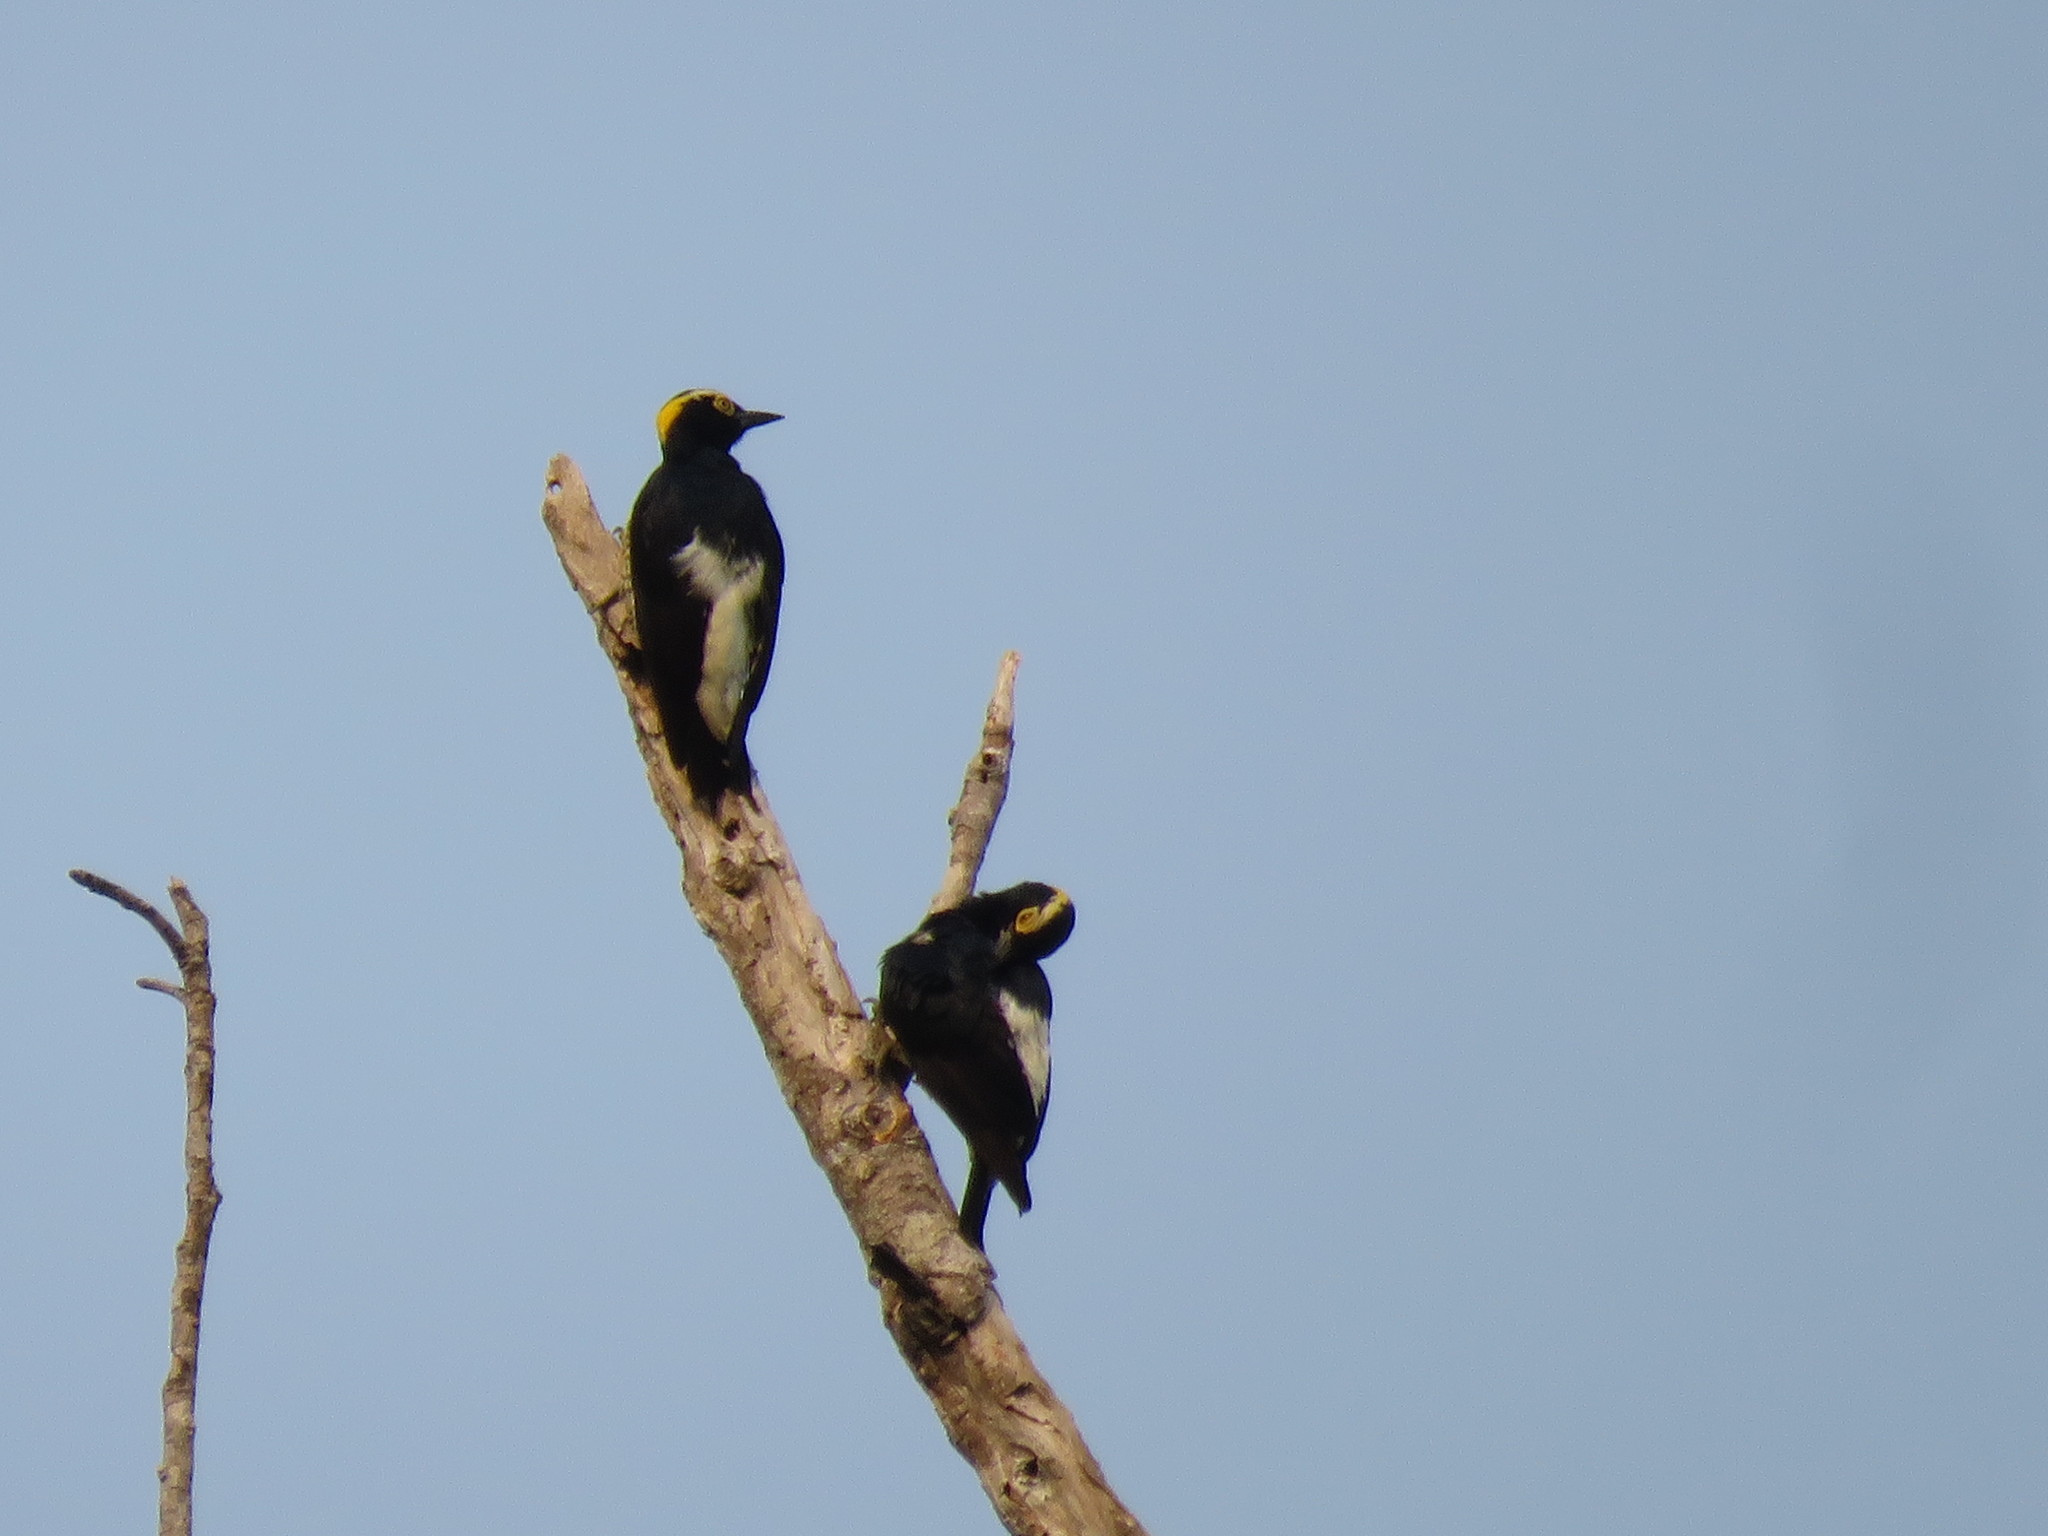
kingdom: Animalia
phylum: Chordata
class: Aves
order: Piciformes
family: Picidae
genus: Melanerpes
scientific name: Melanerpes cruentatus
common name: Yellow-tufted woodpecker
